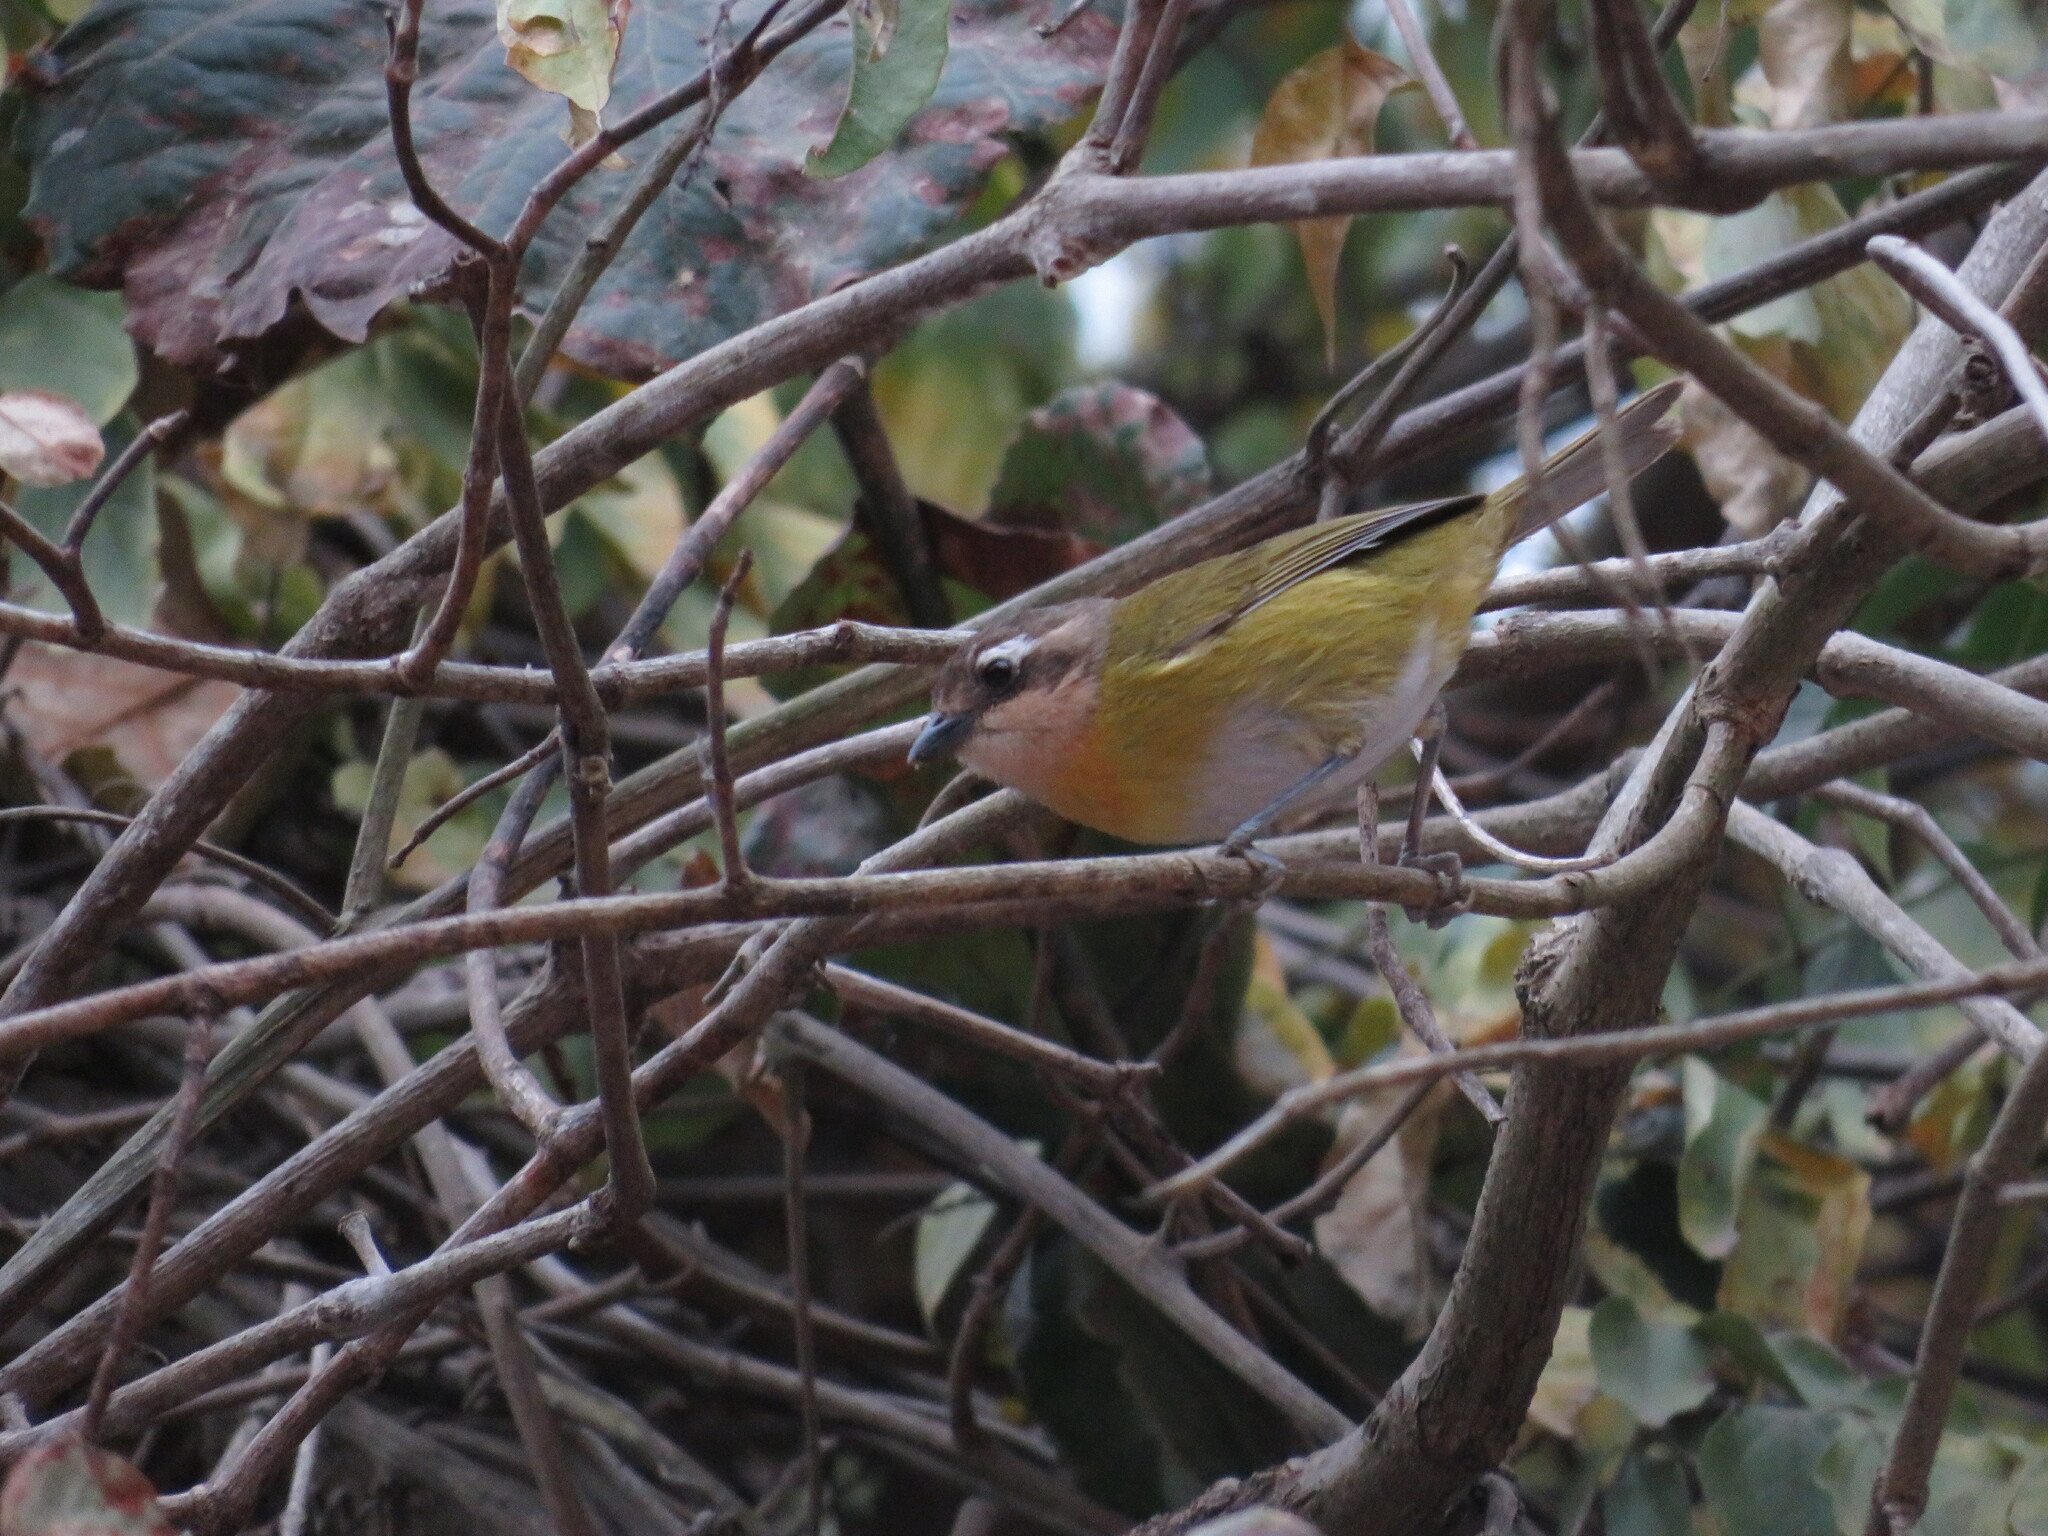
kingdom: Animalia
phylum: Chordata
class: Aves
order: Passeriformes
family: Passerellidae
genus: Chlorospingus
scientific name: Chlorospingus flavopectus
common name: Common chlorospingus
